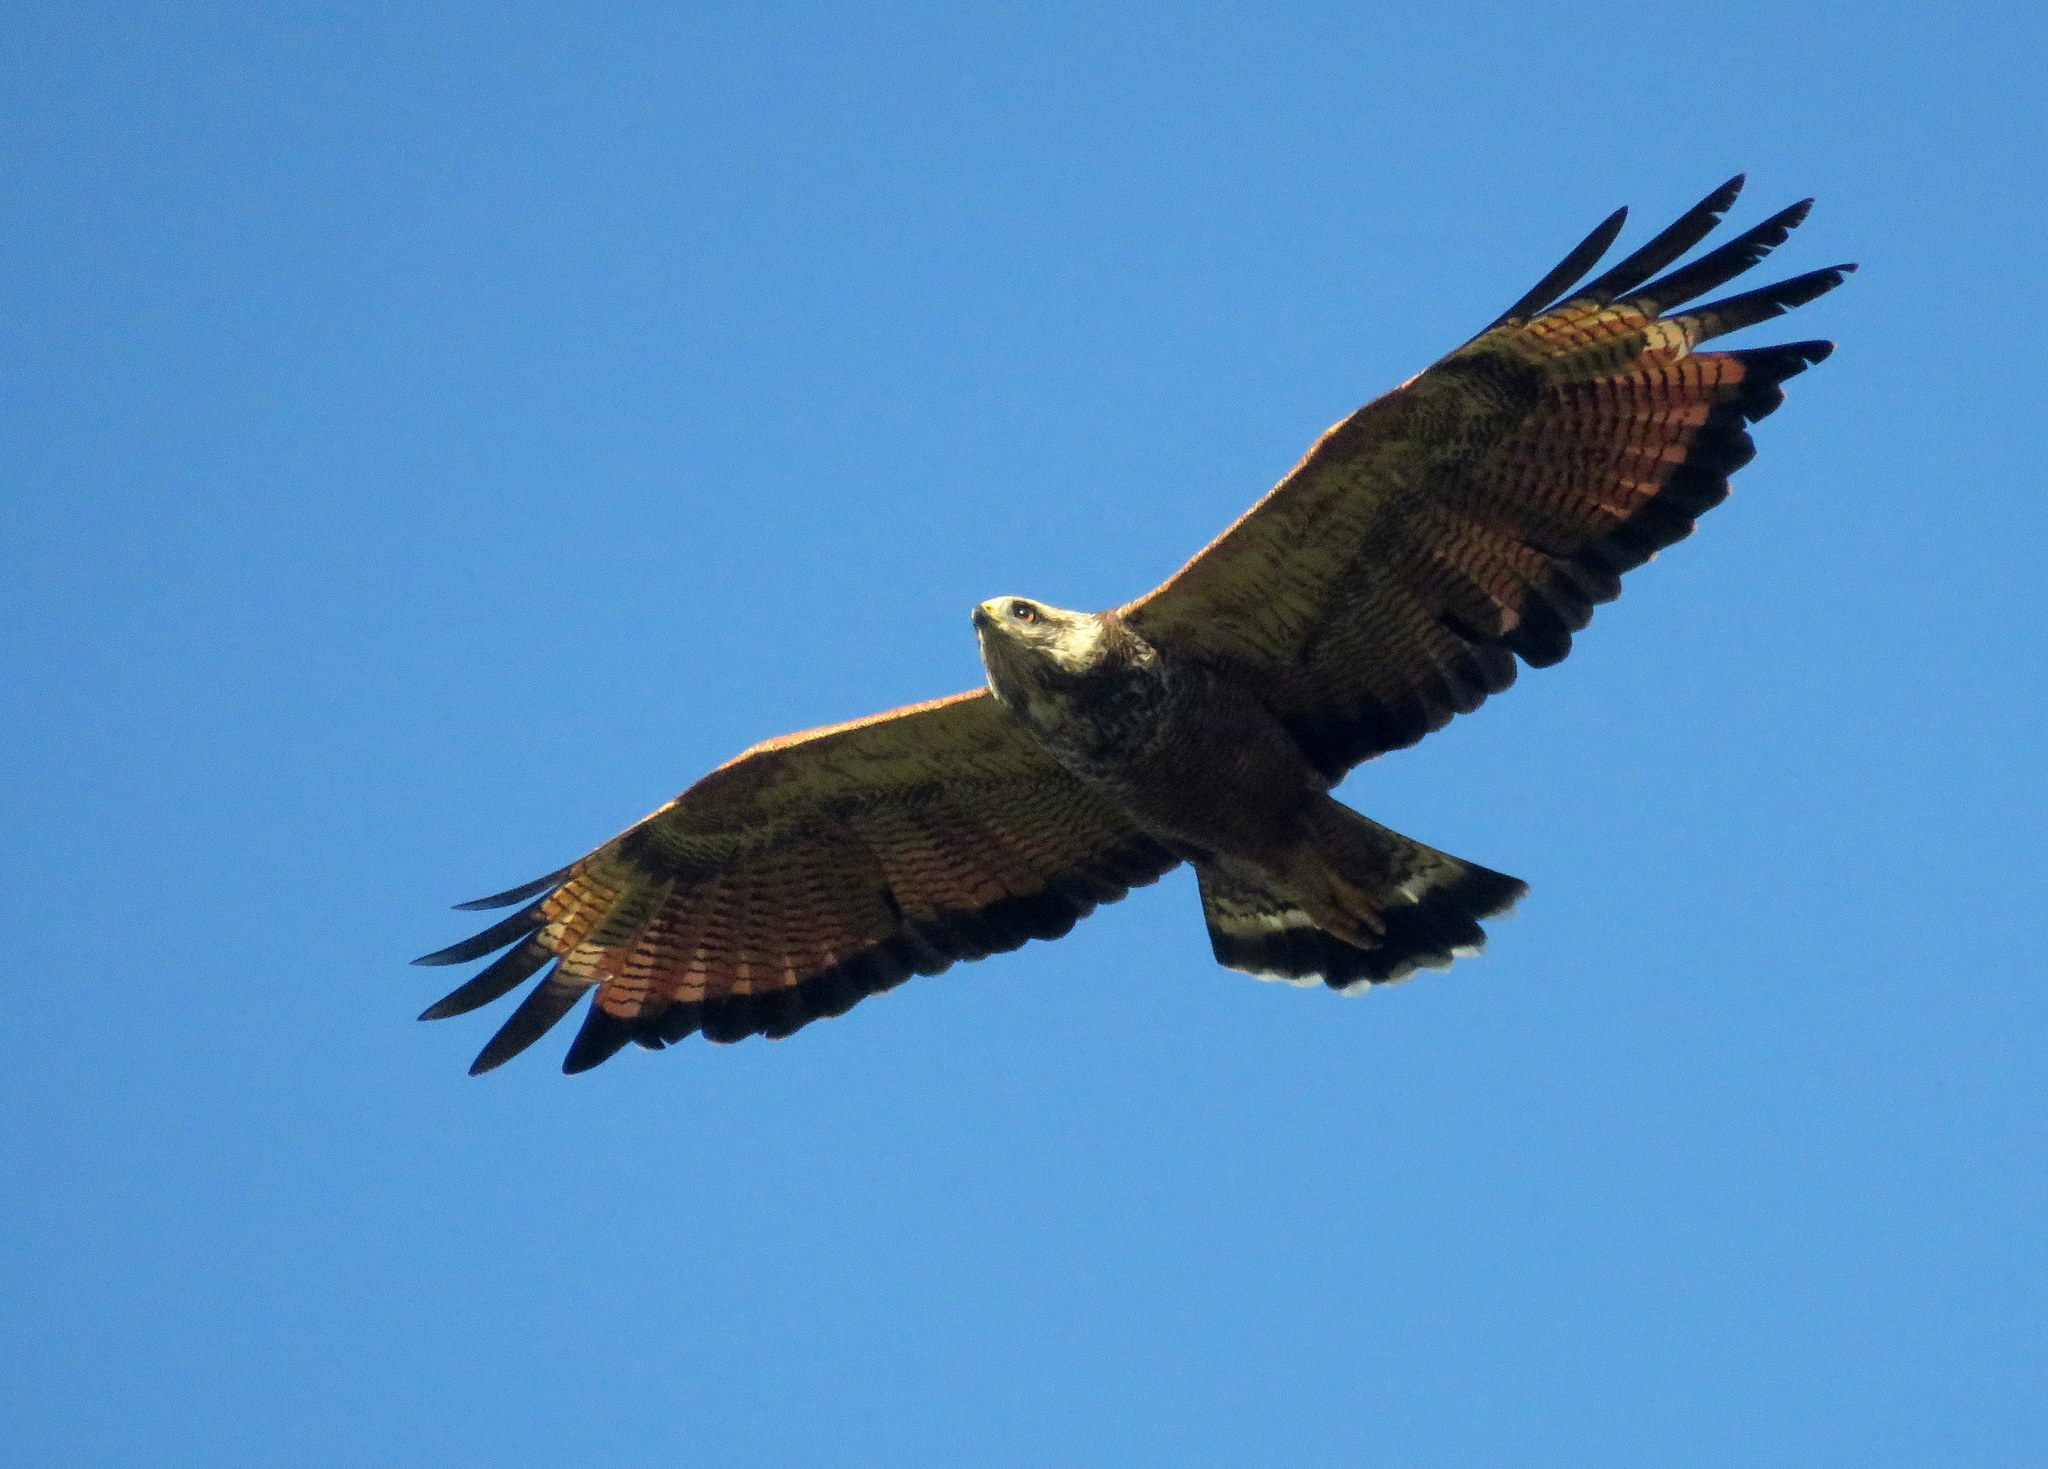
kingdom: Animalia
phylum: Chordata
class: Aves
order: Accipitriformes
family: Accipitridae
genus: Buteogallus
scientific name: Buteogallus meridionalis
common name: Savanna hawk
